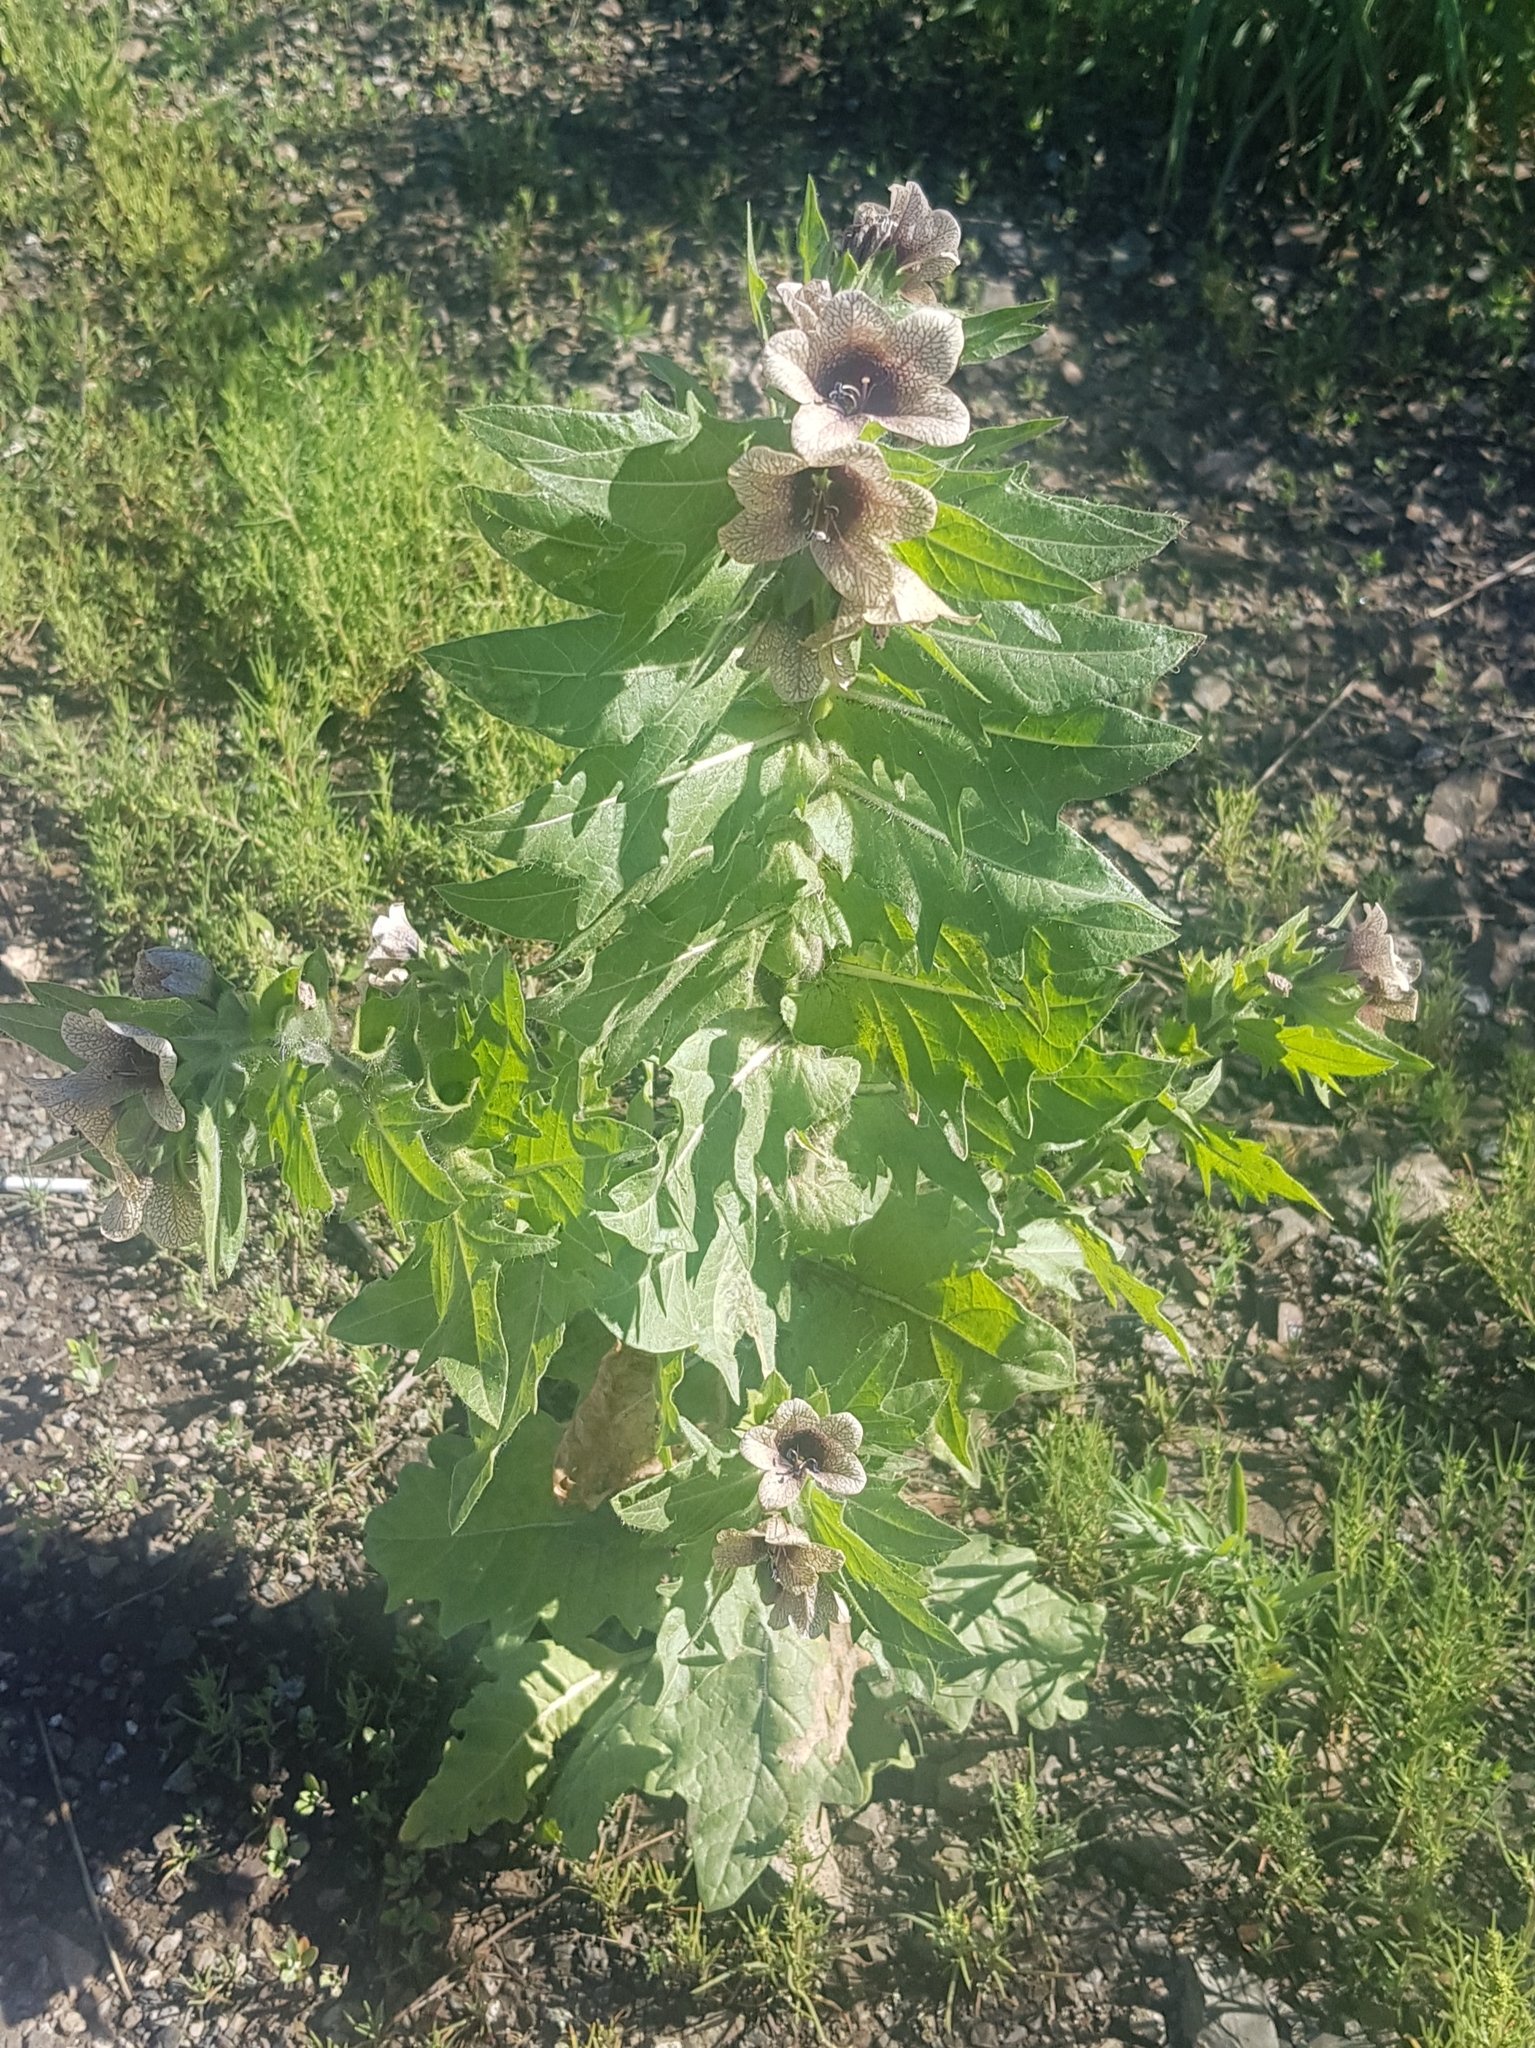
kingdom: Plantae
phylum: Tracheophyta
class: Magnoliopsida
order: Solanales
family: Solanaceae
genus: Hyoscyamus
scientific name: Hyoscyamus niger
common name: Henbane
